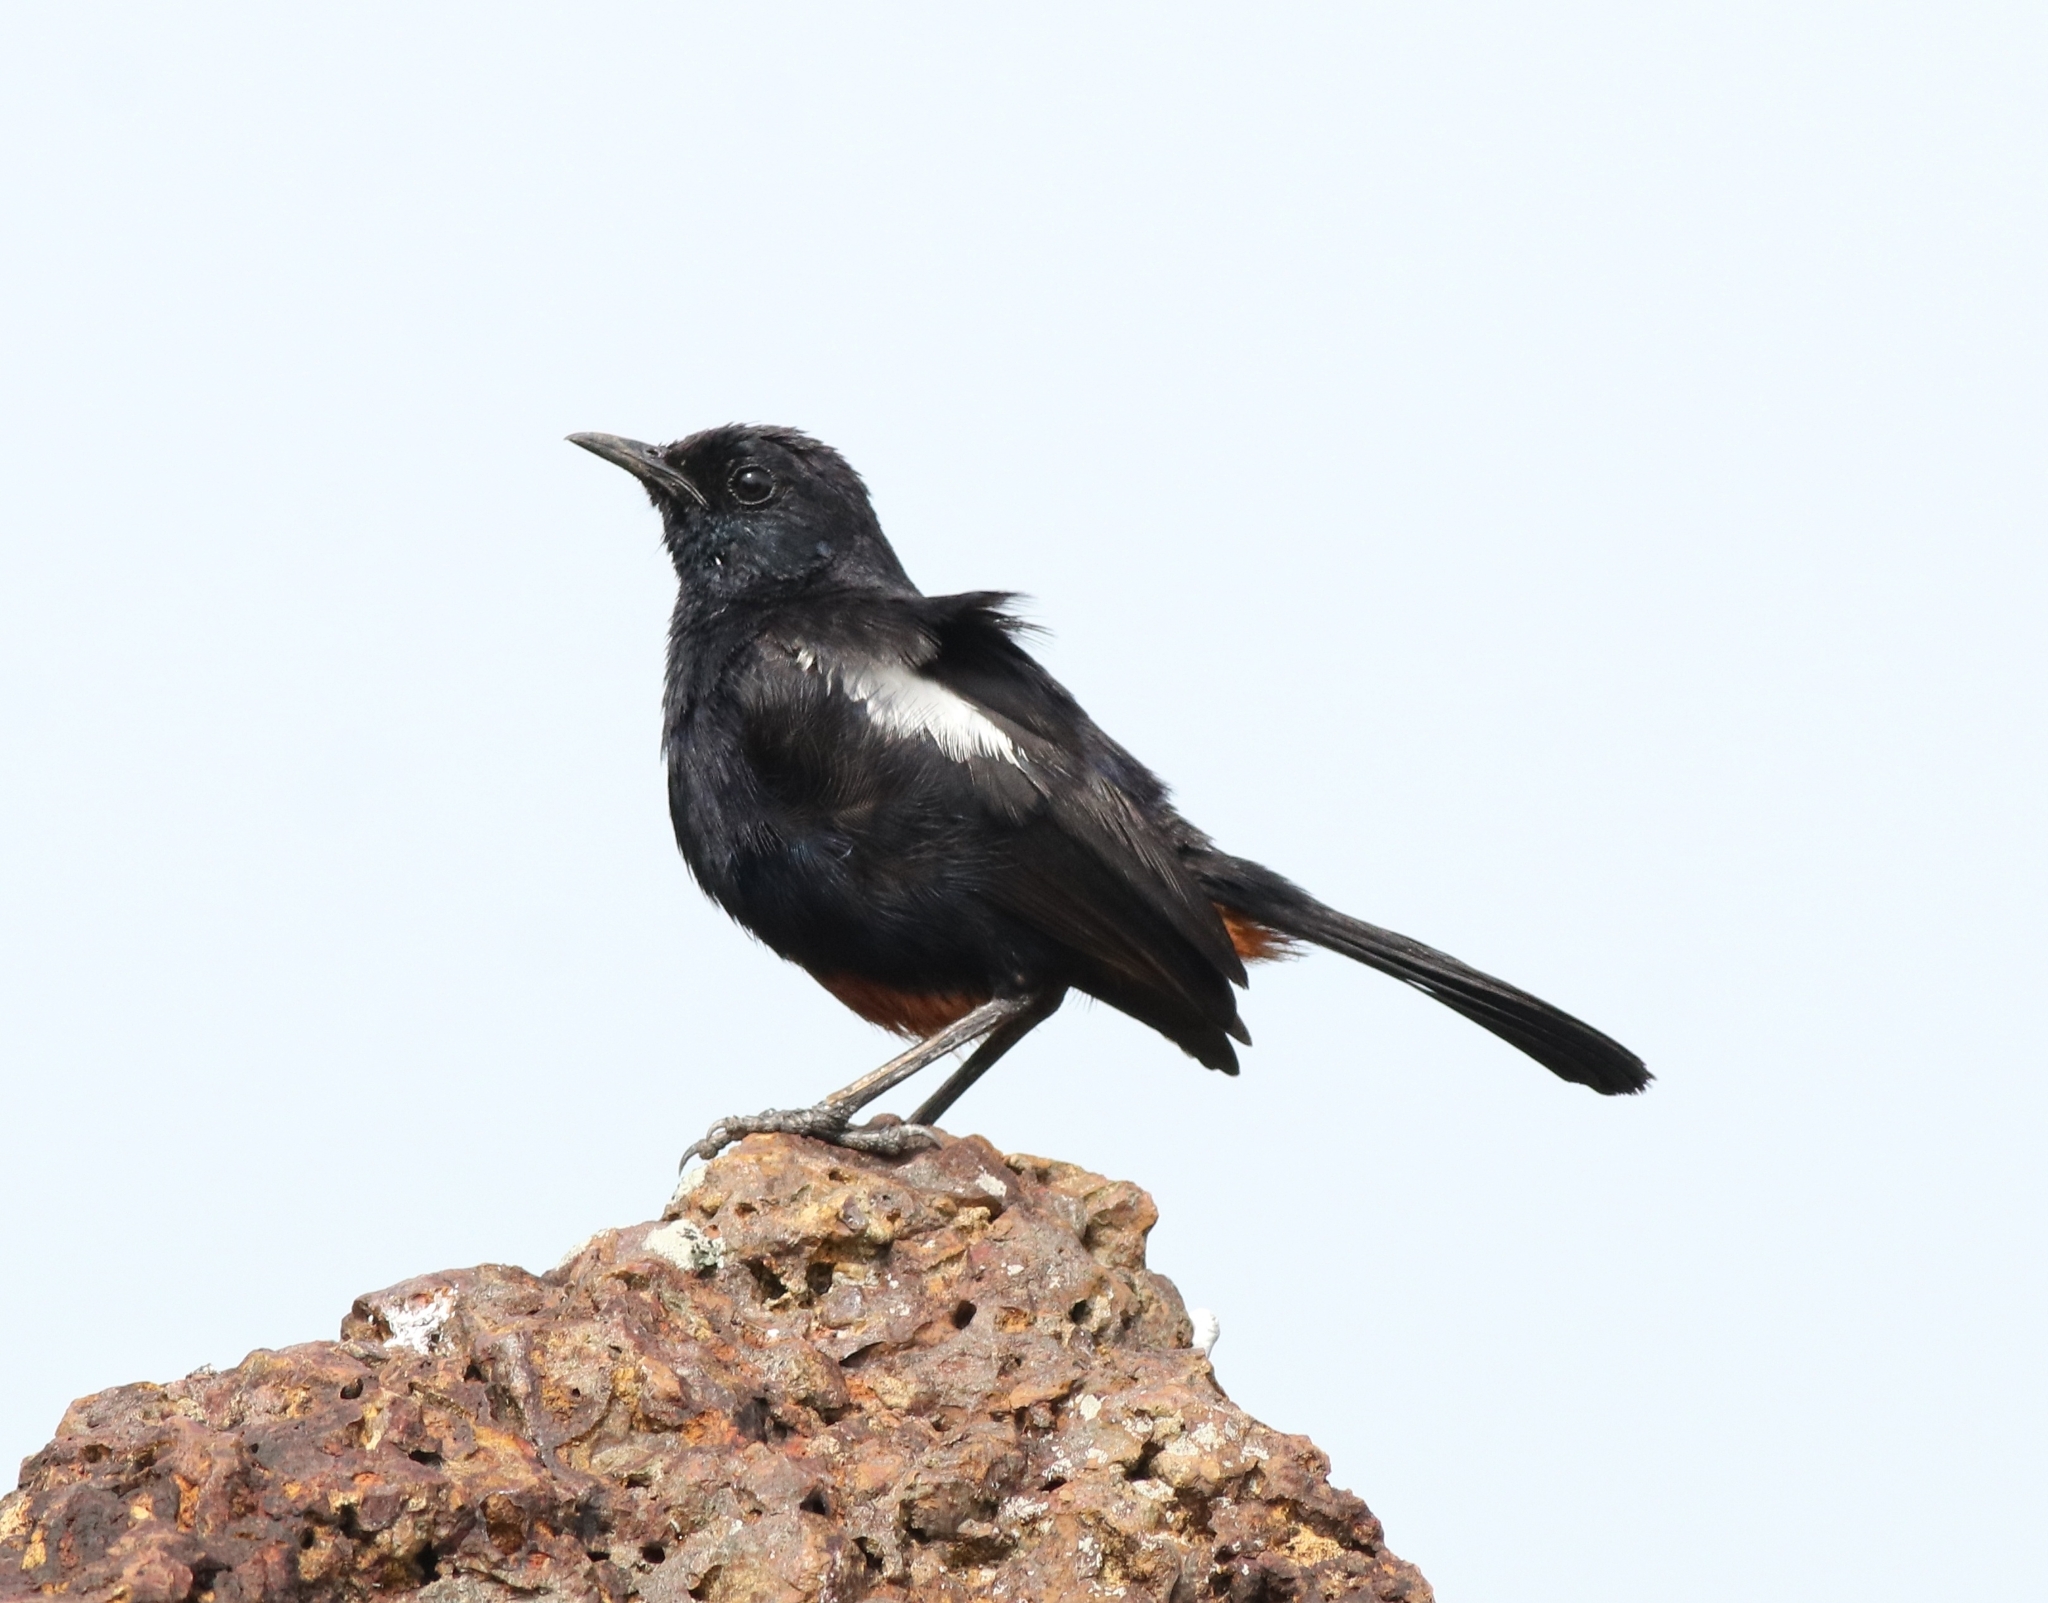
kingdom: Animalia
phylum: Chordata
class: Aves
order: Passeriformes
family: Muscicapidae
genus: Copsychus
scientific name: Copsychus saularis
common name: Oriental magpie-robin
